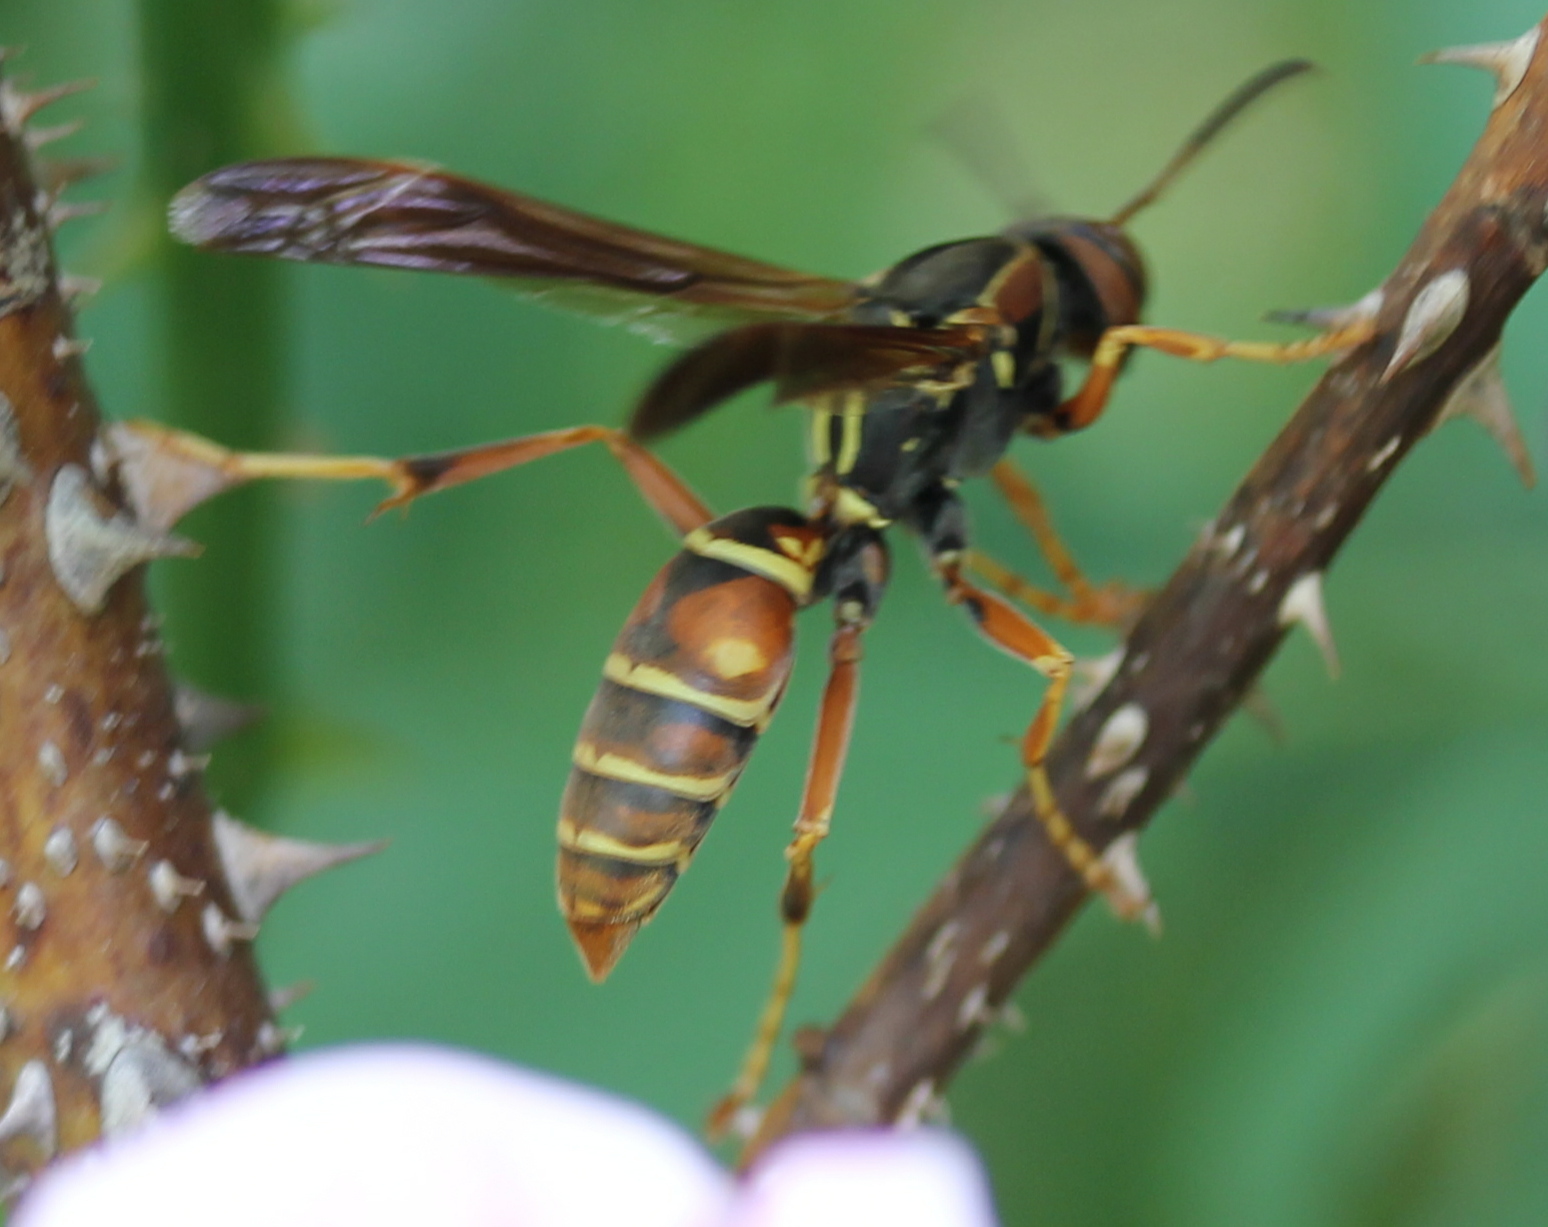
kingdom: Animalia
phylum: Arthropoda
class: Insecta
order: Hymenoptera
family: Eumenidae
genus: Polistes
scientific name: Polistes fuscatus
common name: Dark paper wasp
